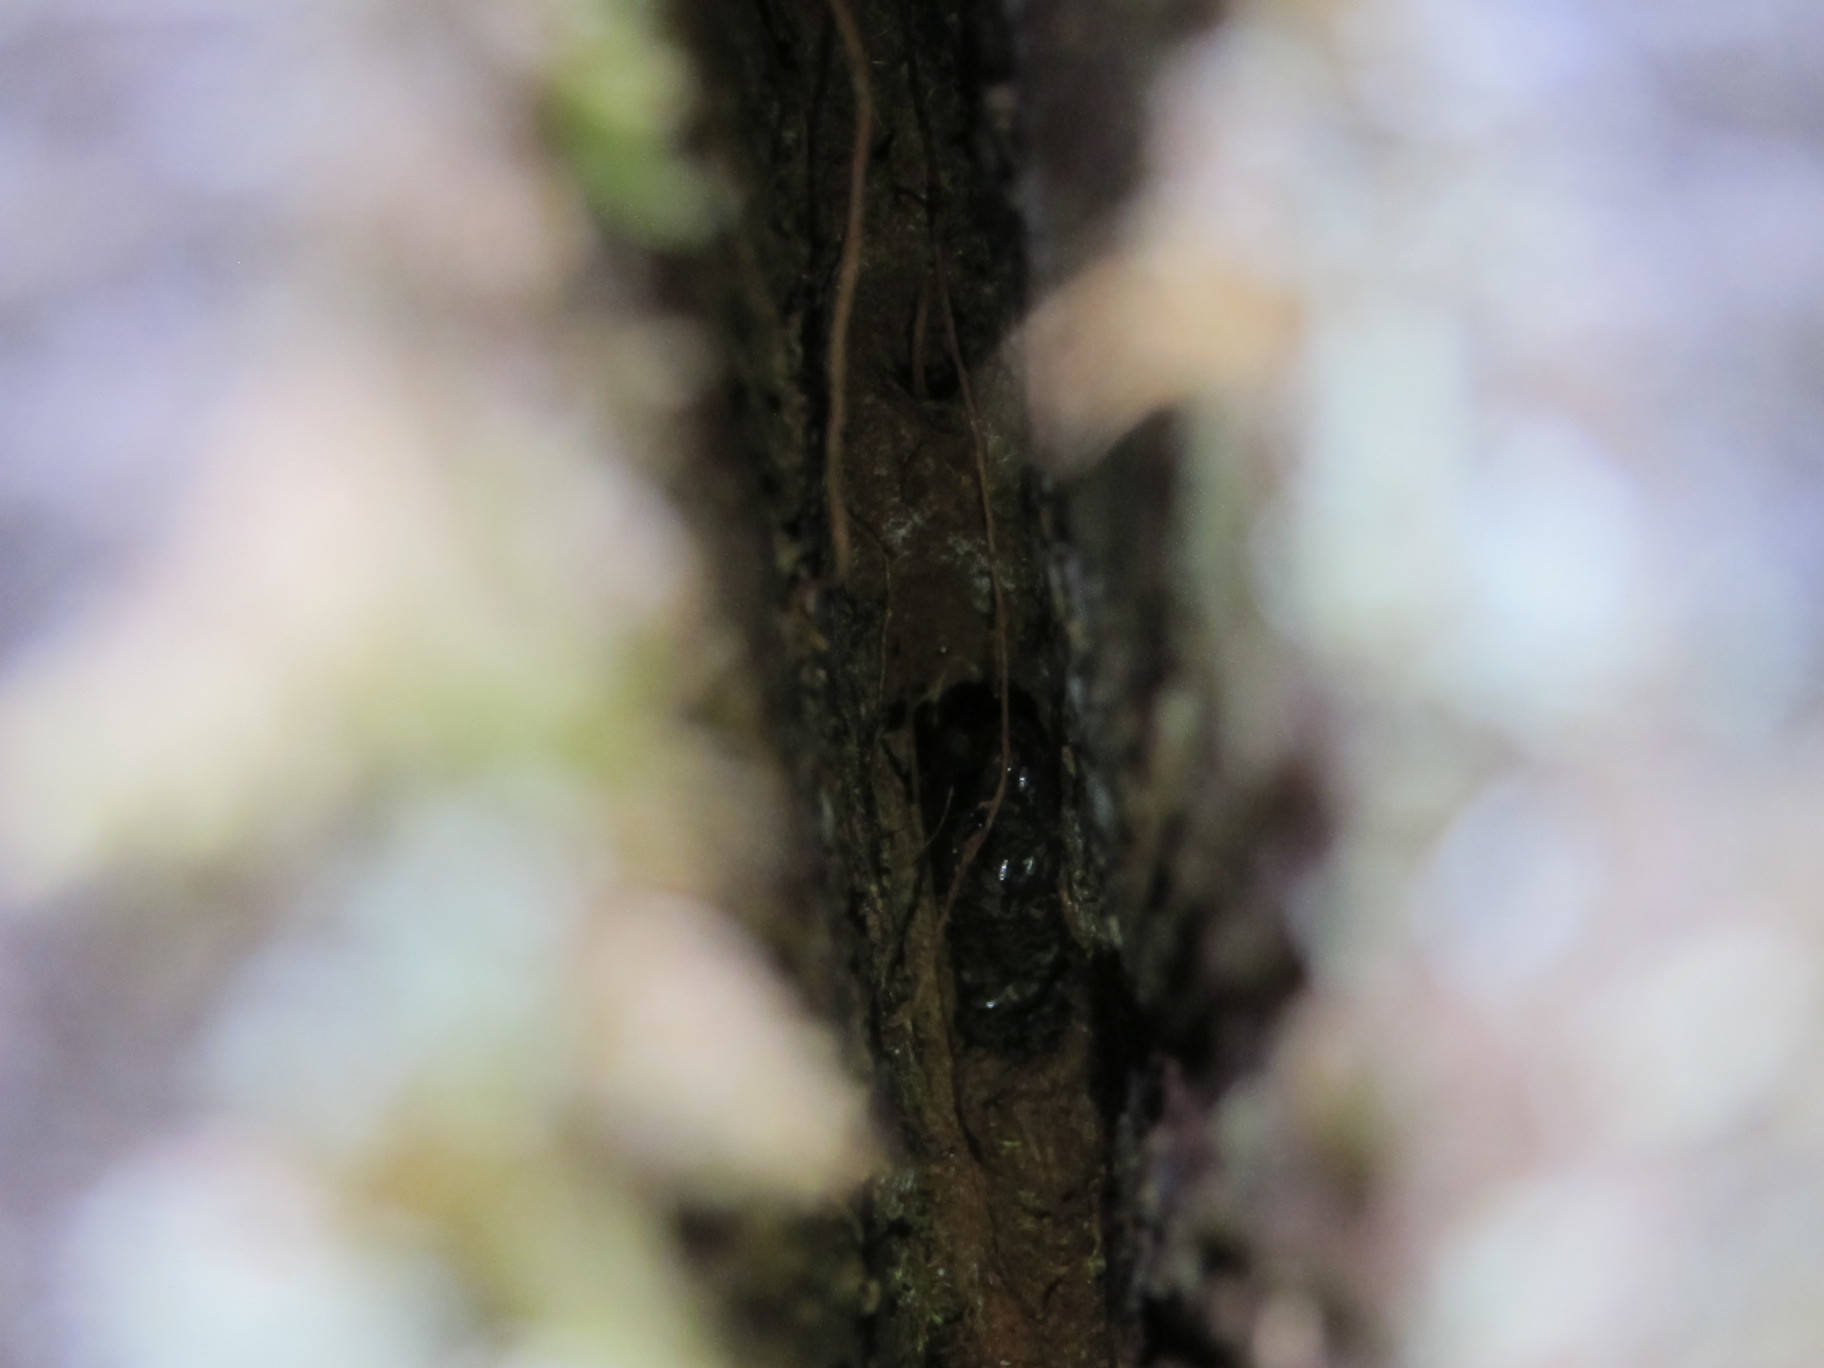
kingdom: Animalia
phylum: Chordata
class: Amphibia
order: Caudata
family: Plethodontidae
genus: Aneides
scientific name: Aneides vagrans
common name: Wandering salamander
